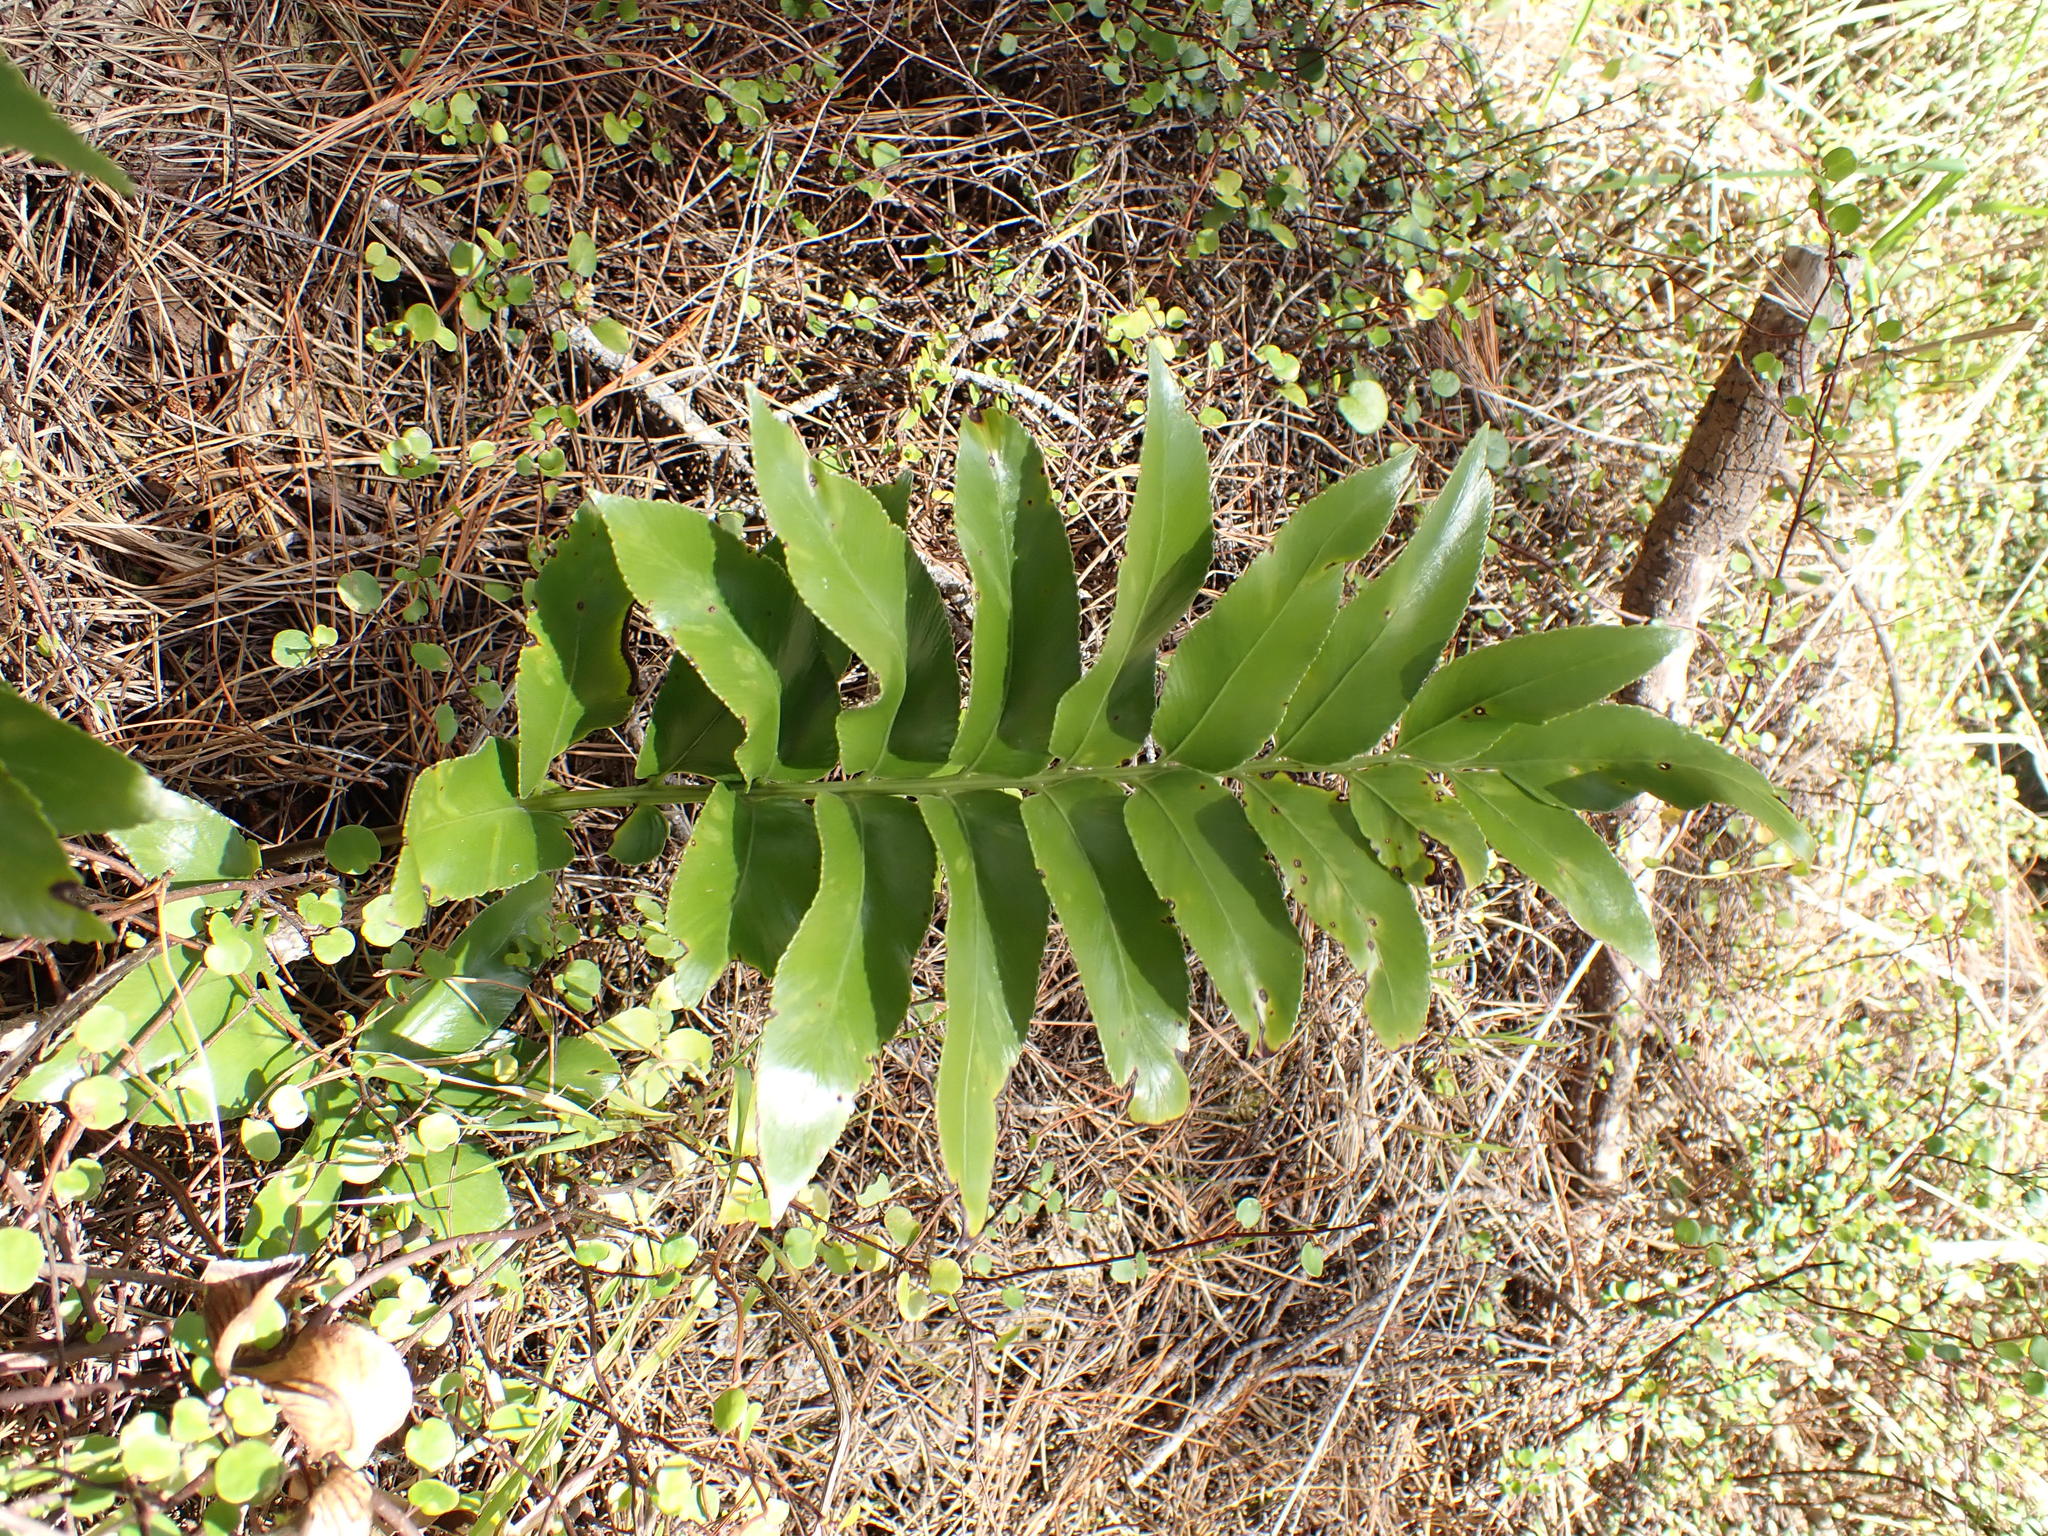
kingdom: Plantae
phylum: Tracheophyta
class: Polypodiopsida
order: Polypodiales
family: Aspleniaceae
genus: Asplenium
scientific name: Asplenium oblongifolium
